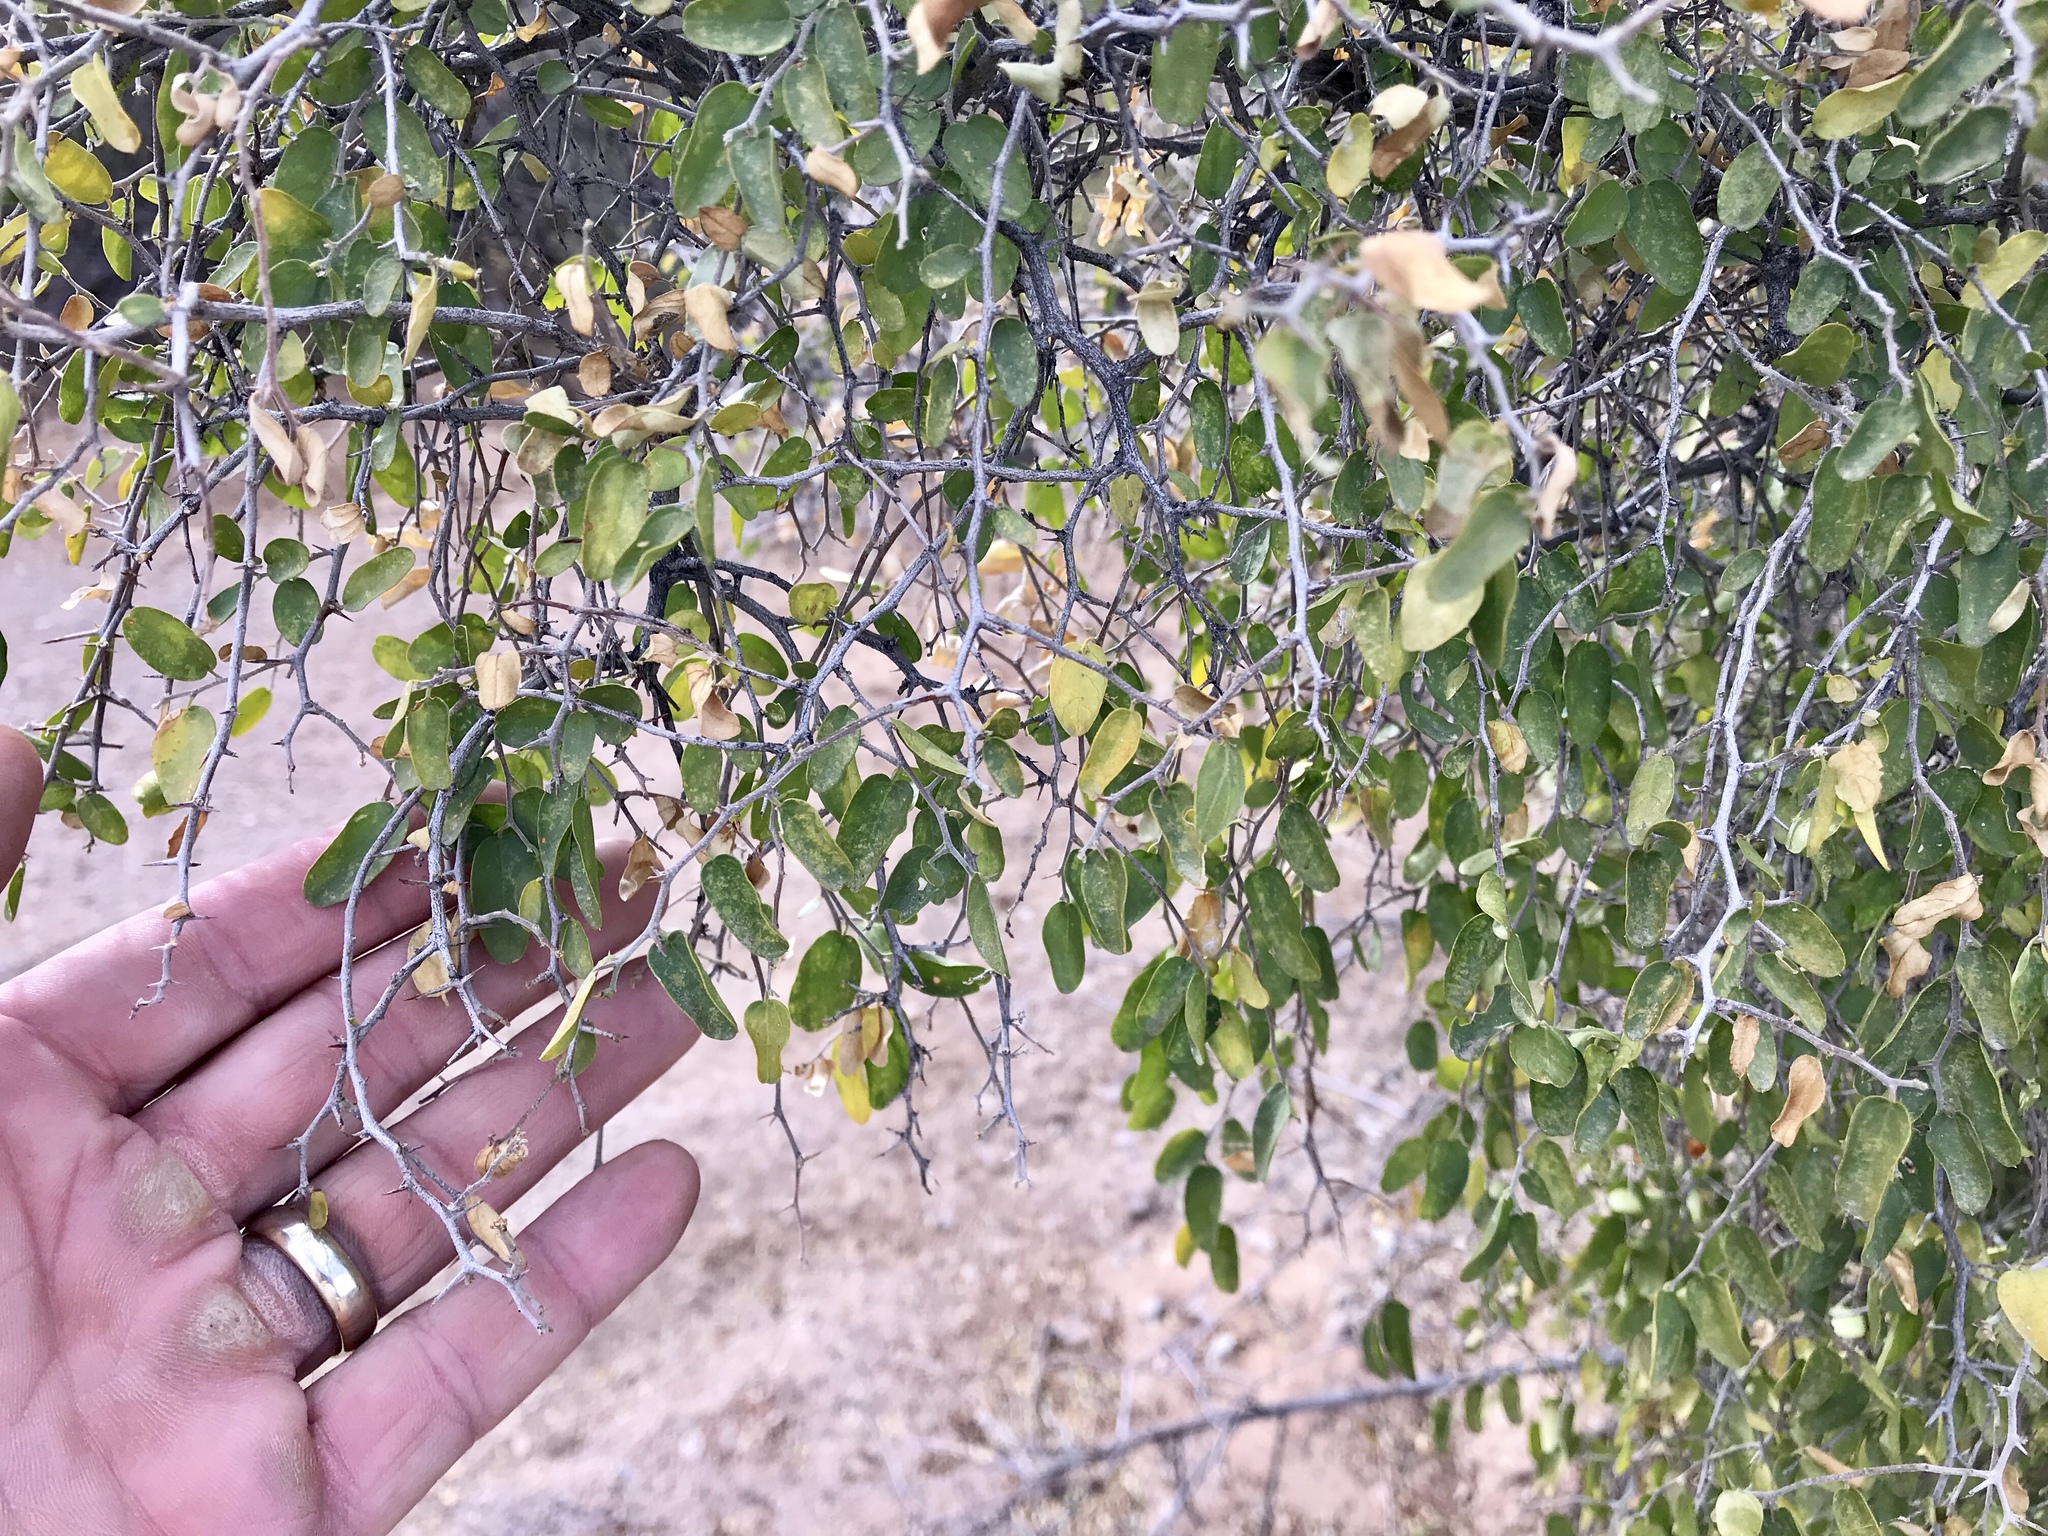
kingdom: Plantae
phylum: Tracheophyta
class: Magnoliopsida
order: Rosales
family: Cannabaceae
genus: Celtis
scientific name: Celtis pallida
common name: Desert hackberry
